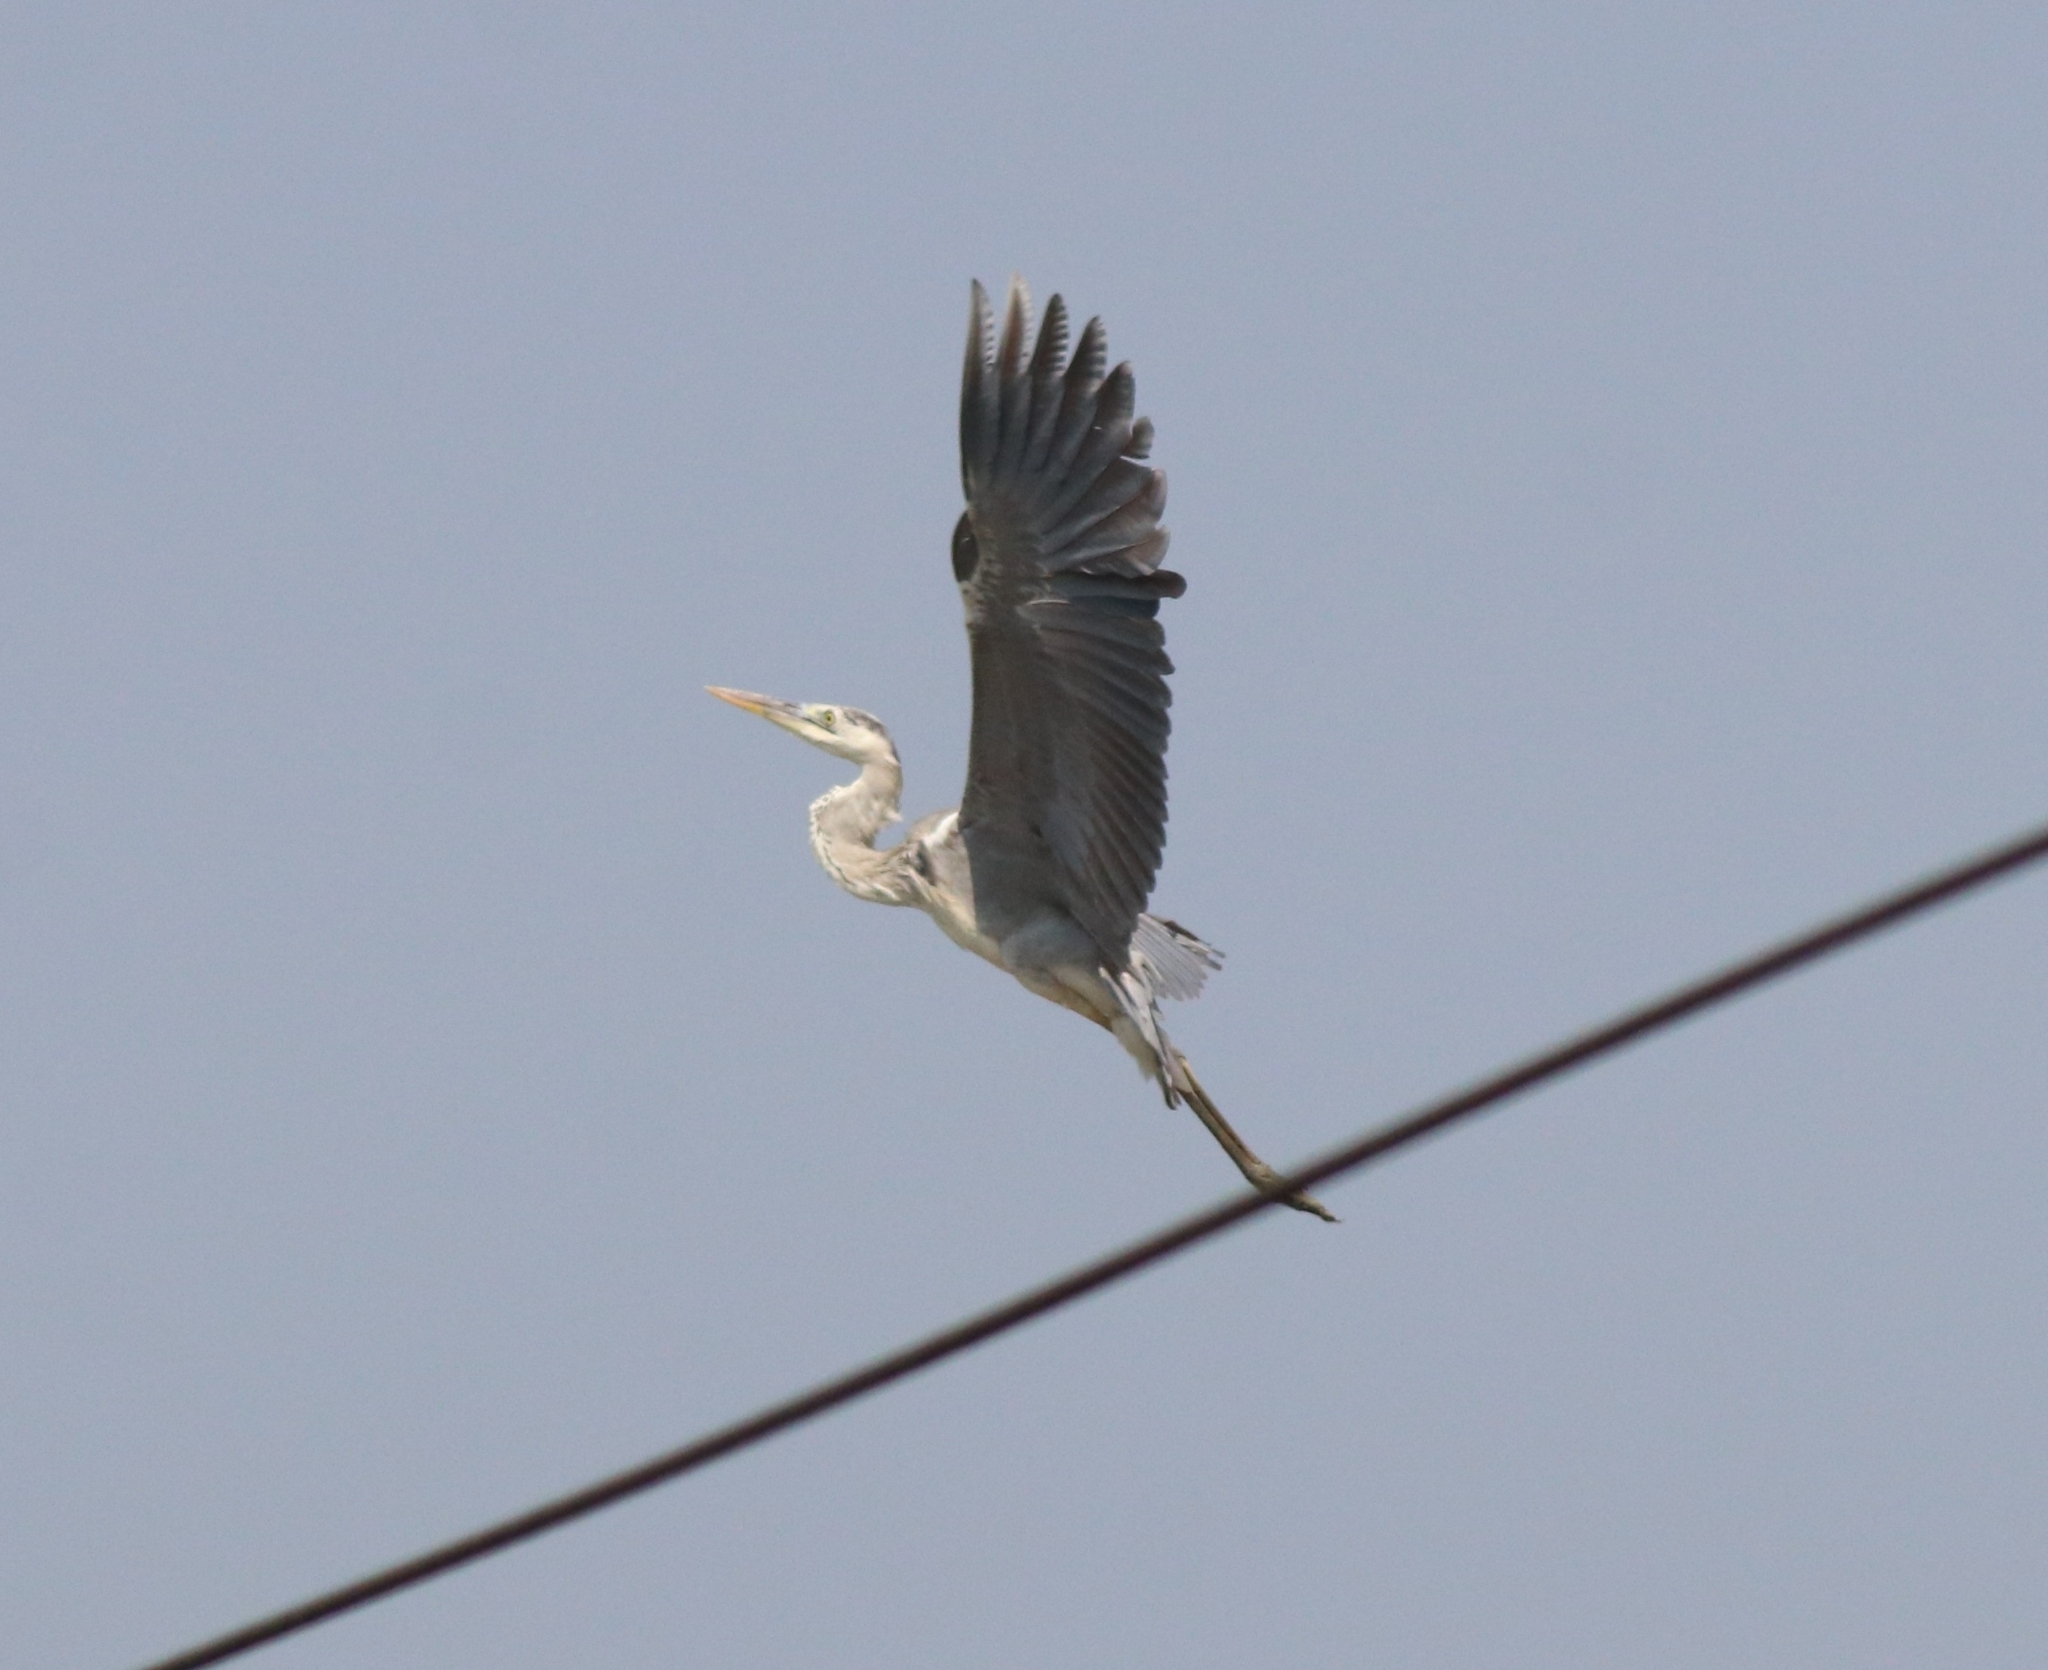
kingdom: Animalia
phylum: Chordata
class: Aves
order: Pelecaniformes
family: Ardeidae
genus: Ardea
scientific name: Ardea cinerea
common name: Grey heron
